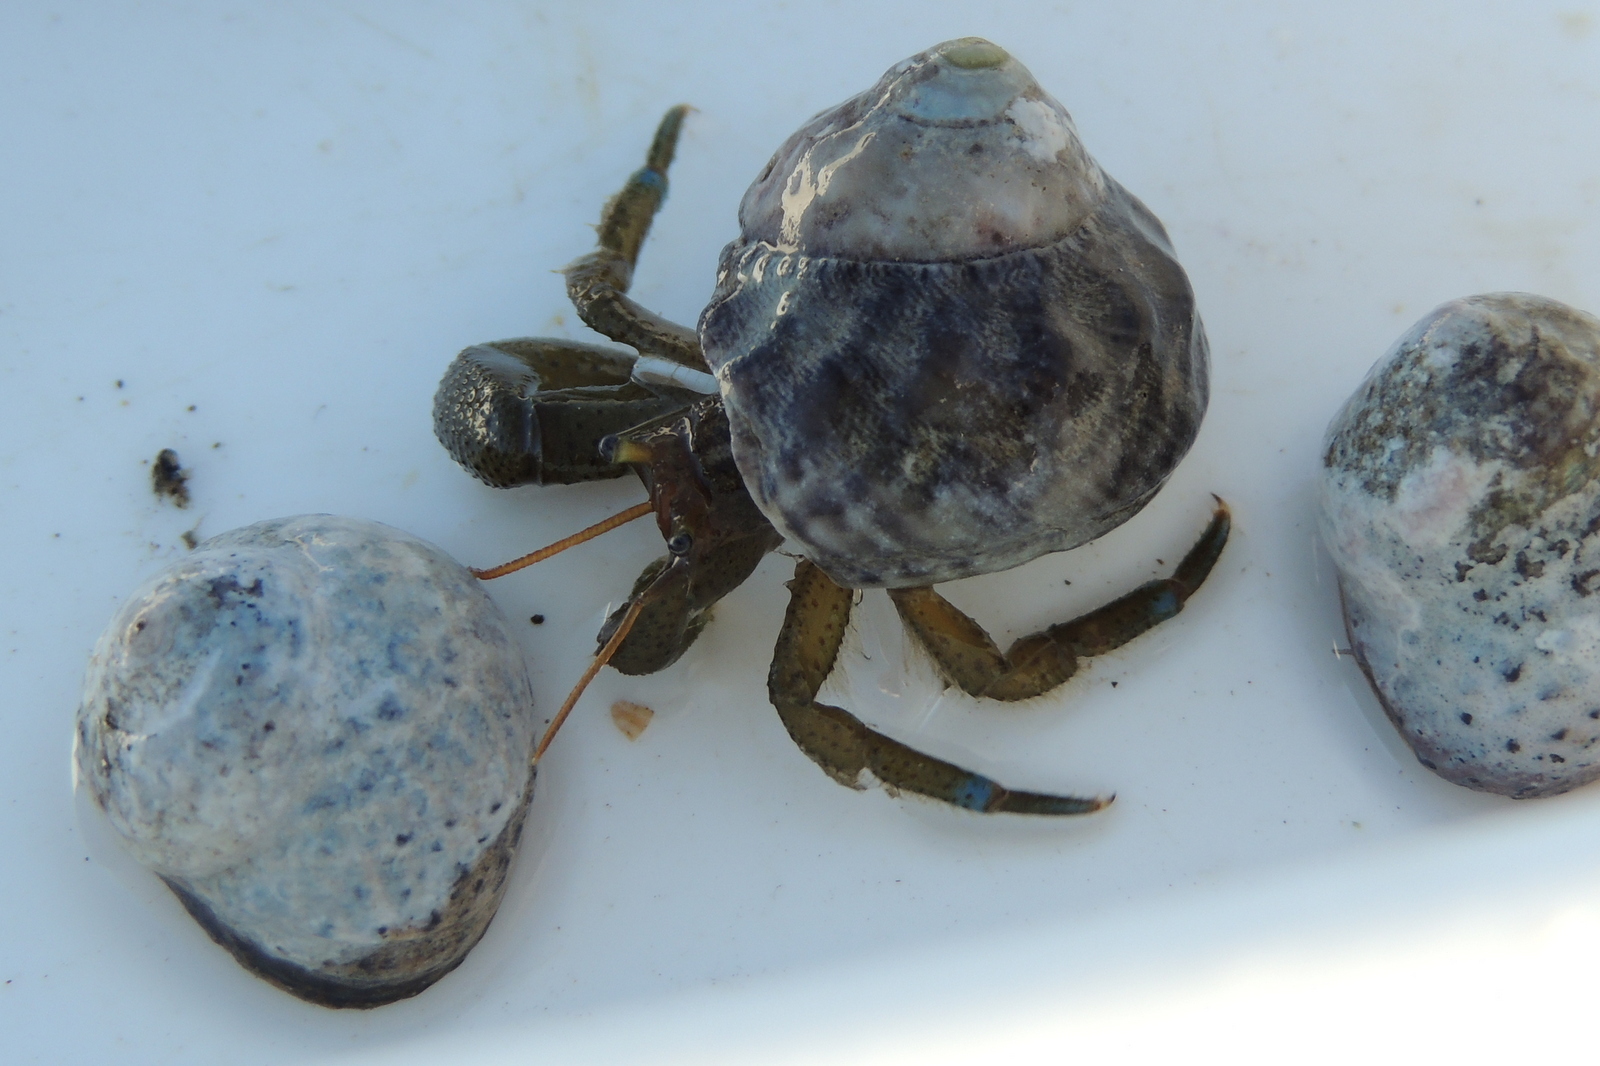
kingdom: Animalia
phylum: Arthropoda
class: Malacostraca
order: Decapoda
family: Paguridae
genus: Pagurus
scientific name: Pagurus samuelis
